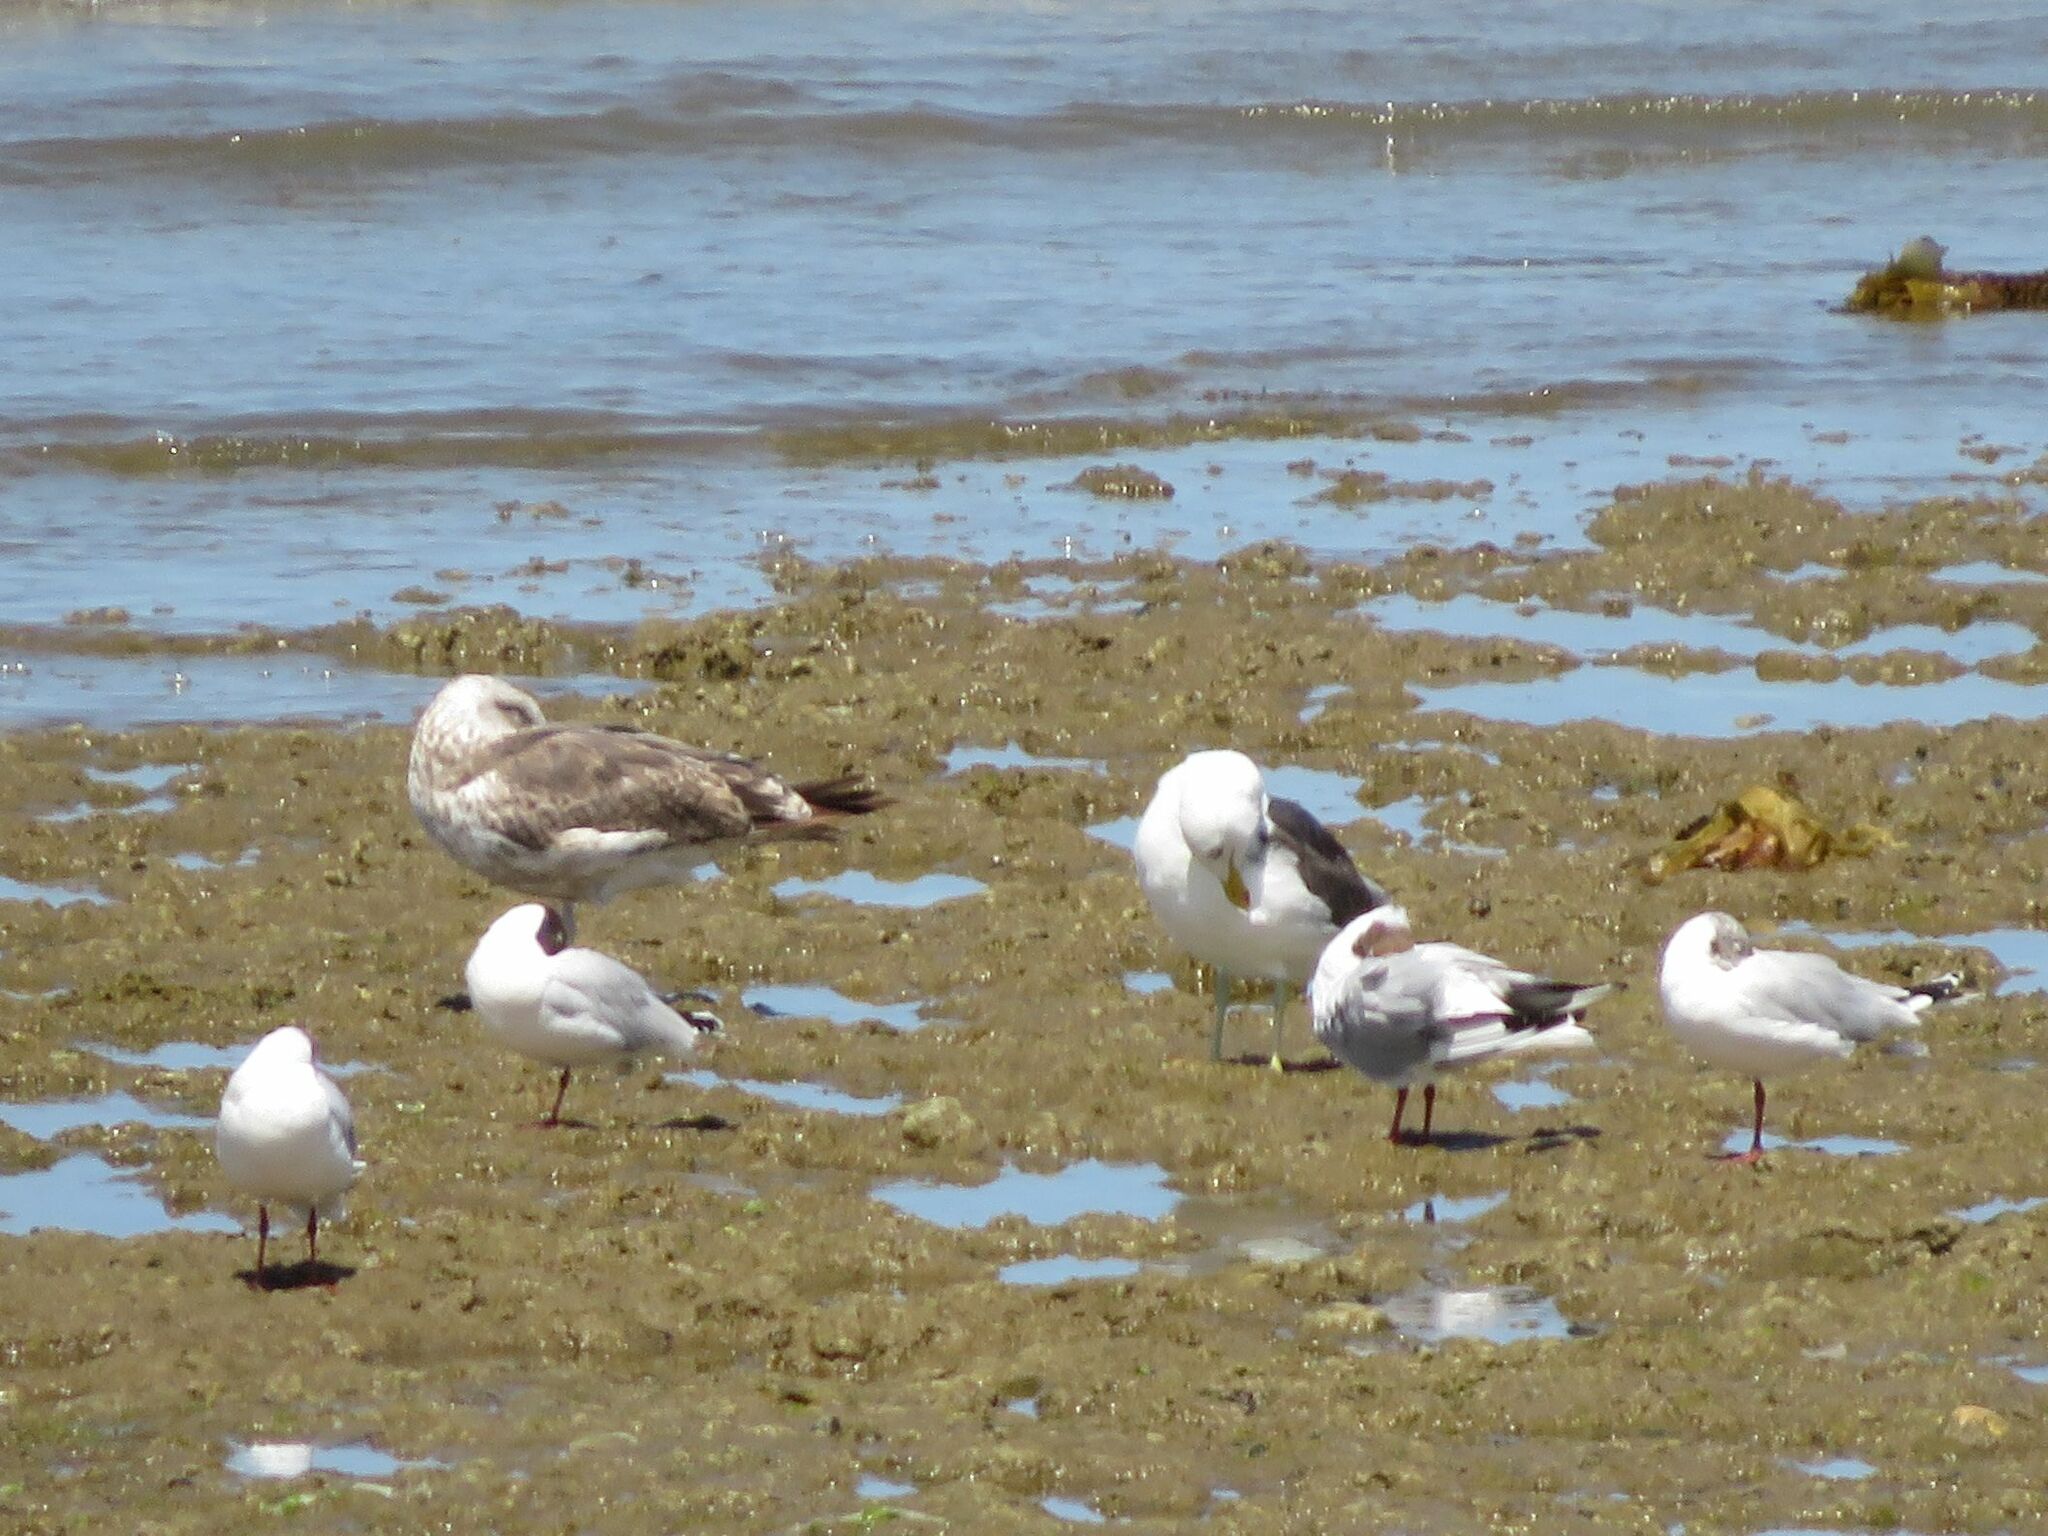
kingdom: Animalia
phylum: Chordata
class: Aves
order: Charadriiformes
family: Laridae
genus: Larus
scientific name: Larus dominicanus
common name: Kelp gull
